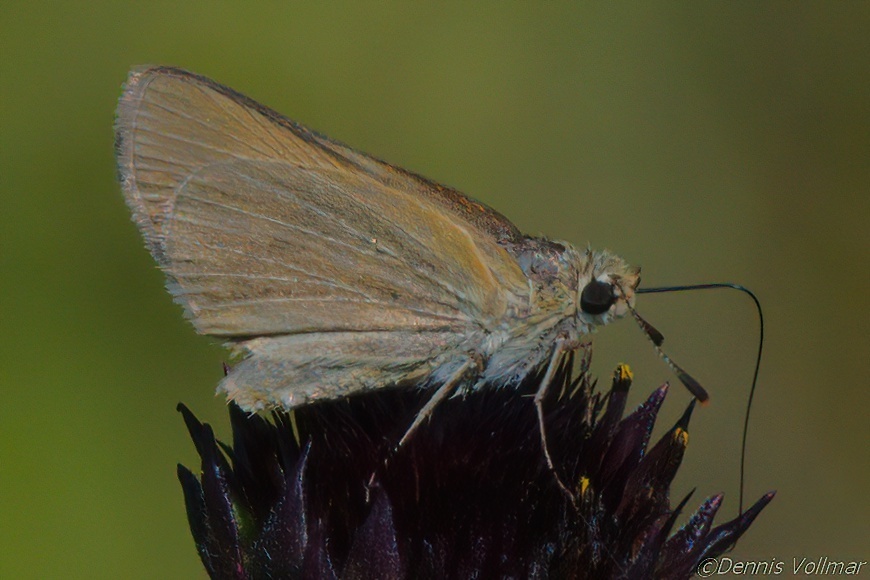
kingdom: Animalia
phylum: Arthropoda
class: Insecta
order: Lepidoptera
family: Hesperiidae
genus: Atrytone
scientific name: Atrytone arogos
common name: Arogos skipper
